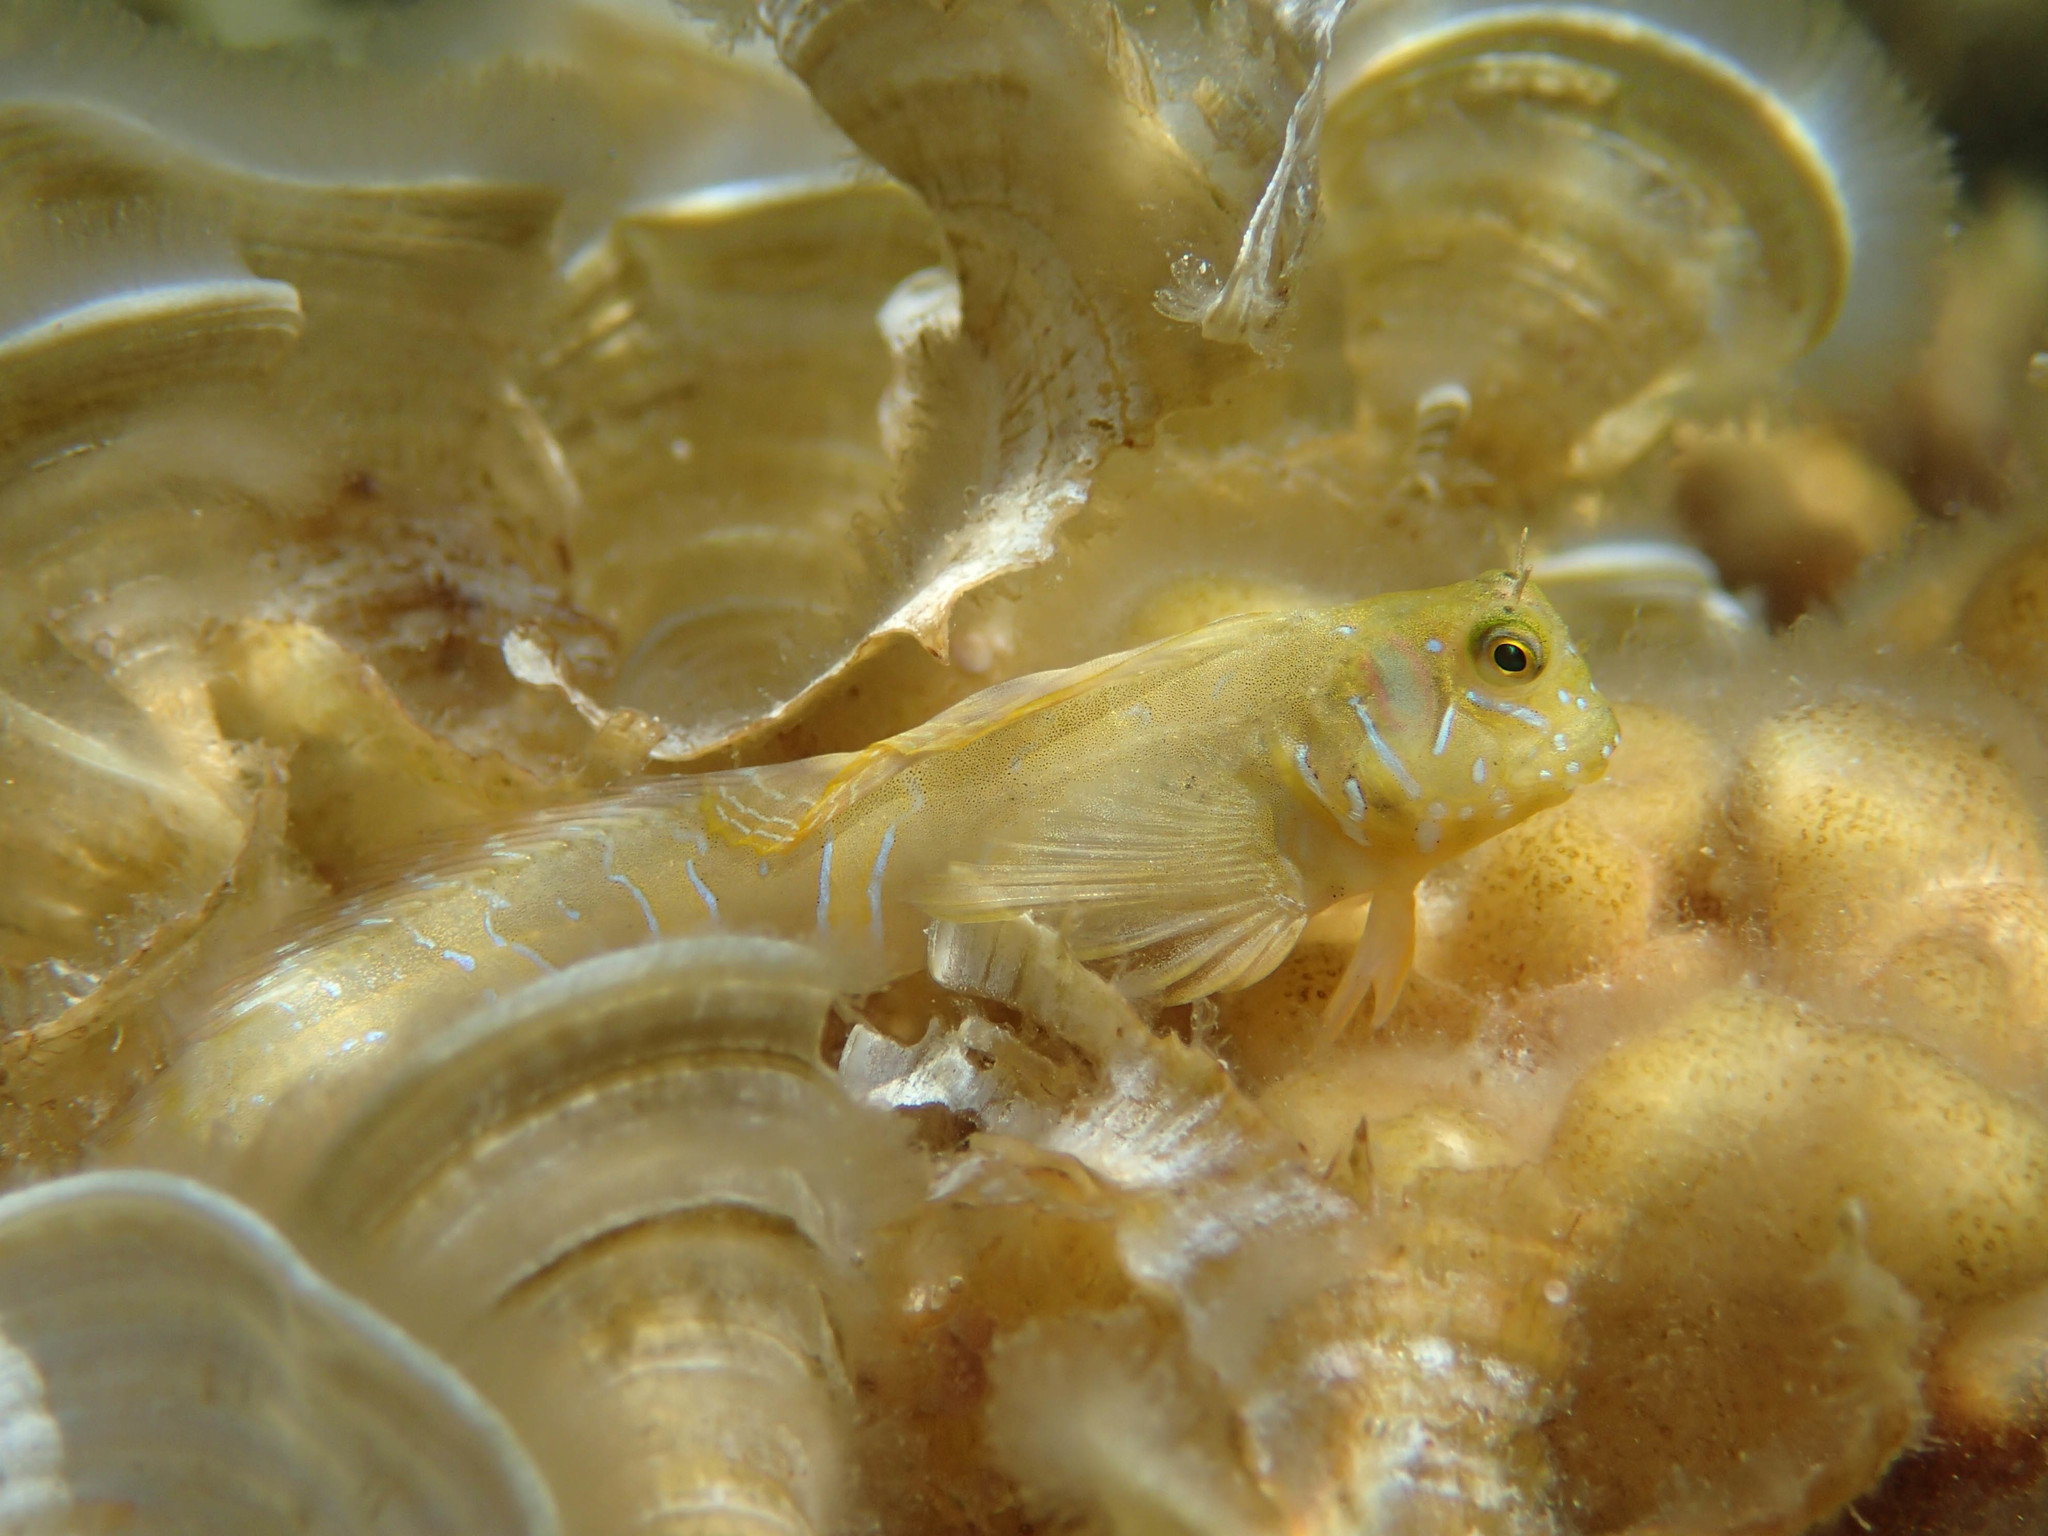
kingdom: Animalia
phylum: Chordata
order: Perciformes
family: Blenniidae
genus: Aidablennius
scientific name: Aidablennius sphynx
